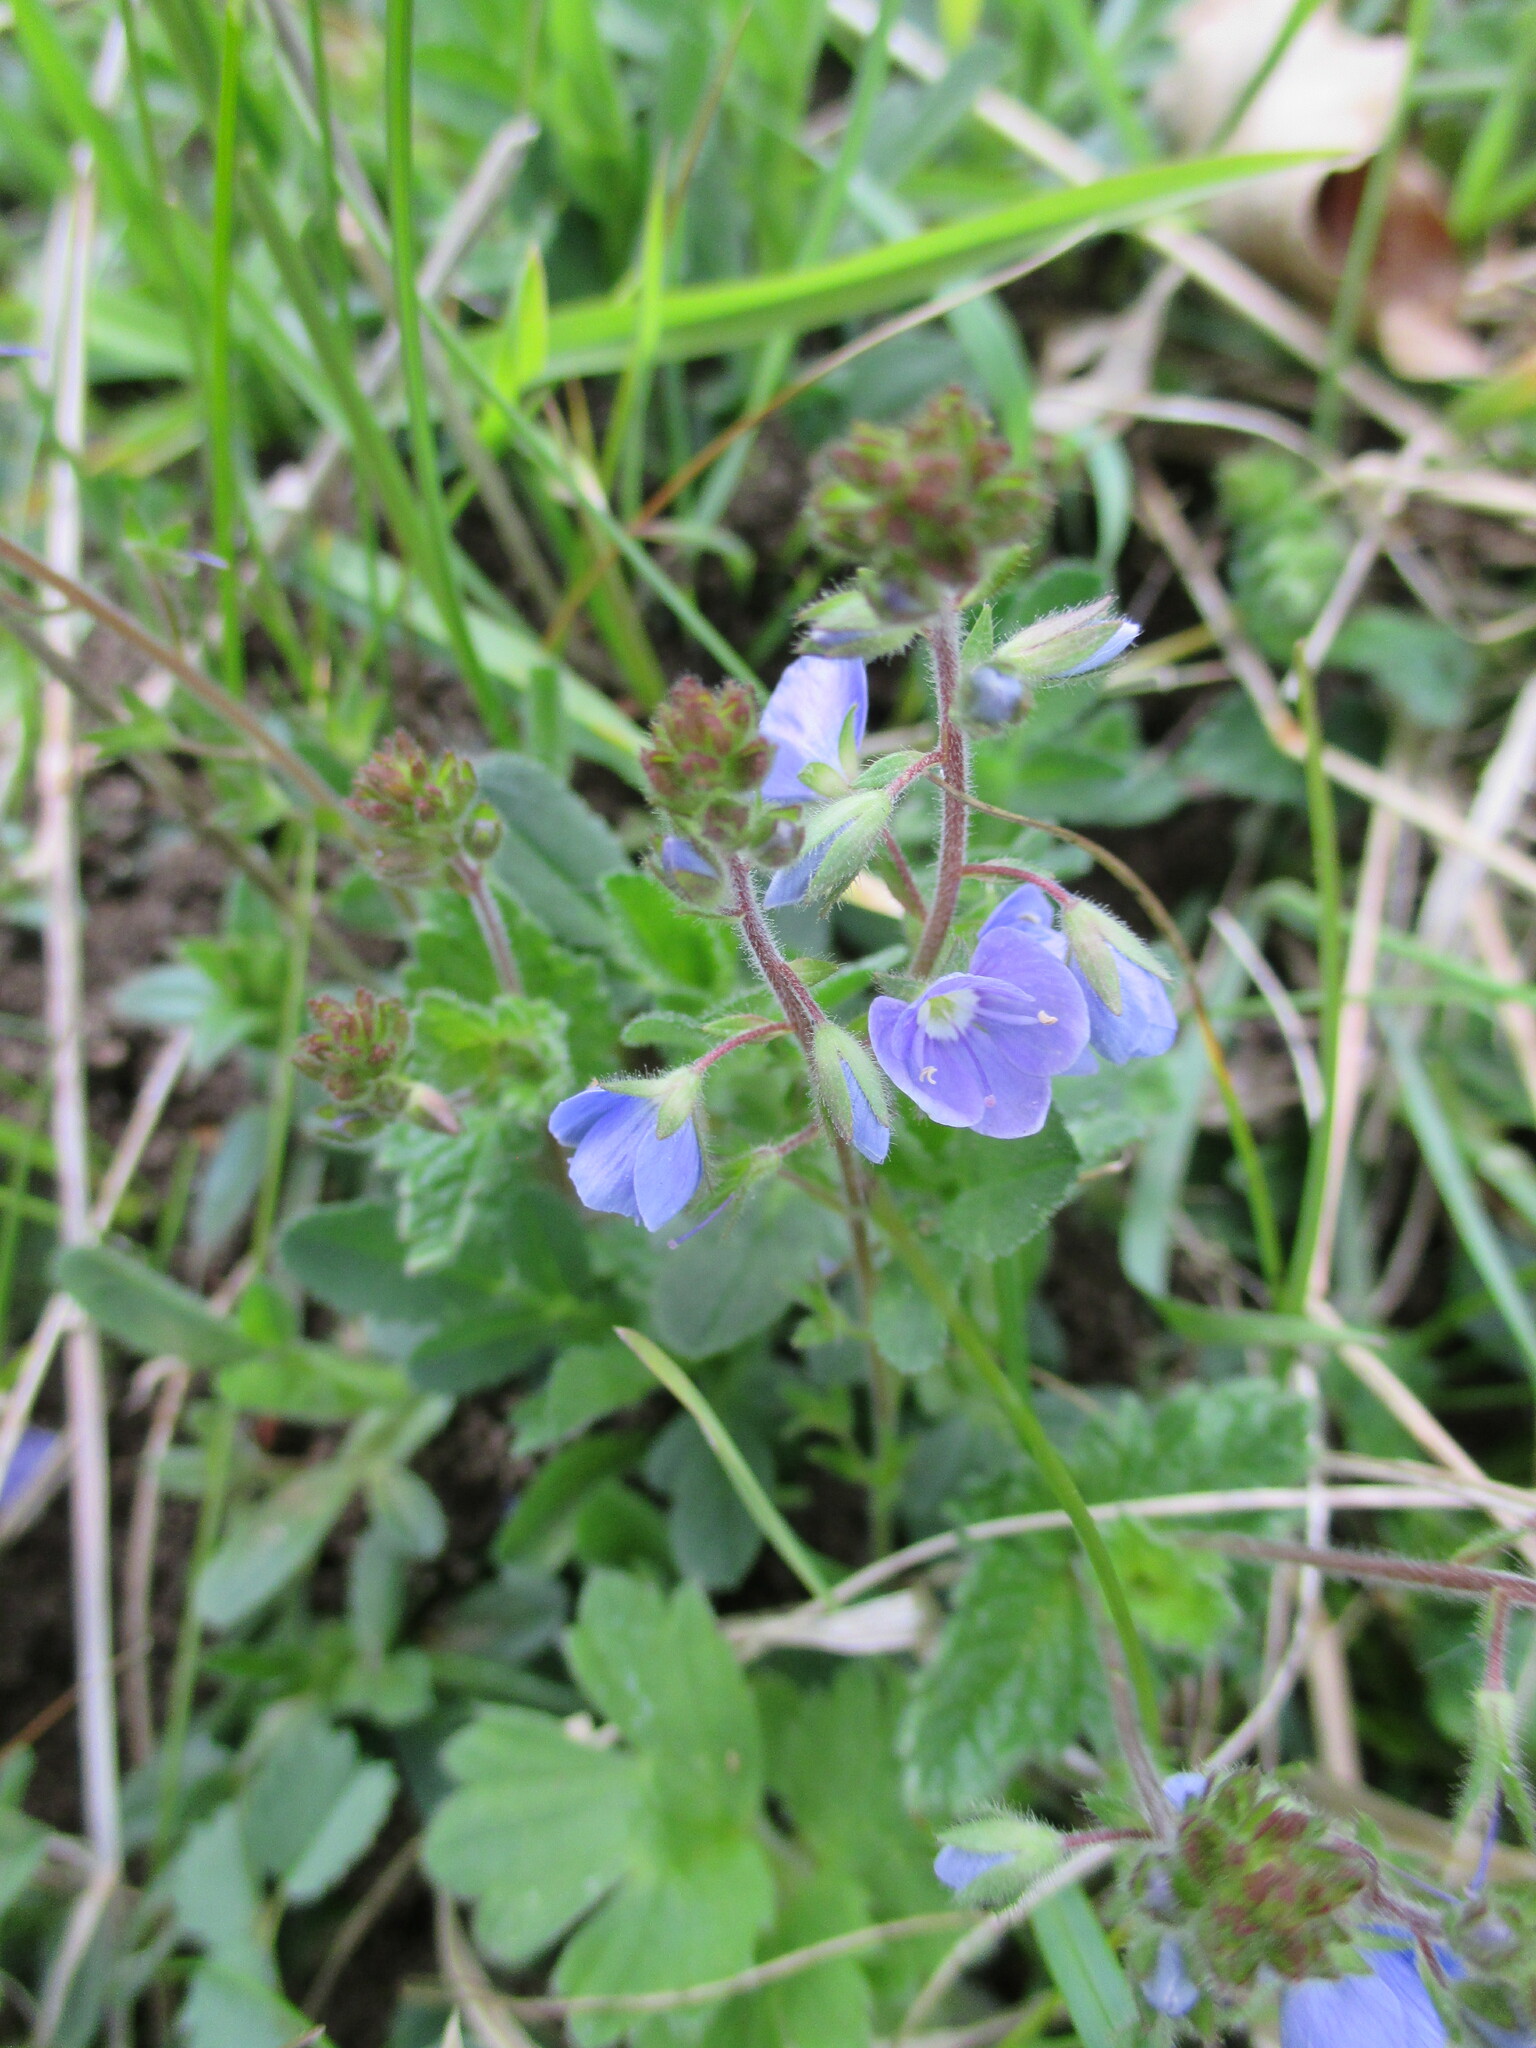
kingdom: Plantae
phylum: Tracheophyta
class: Magnoliopsida
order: Lamiales
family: Plantaginaceae
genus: Veronica
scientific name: Veronica chamaedrys
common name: Germander speedwell
